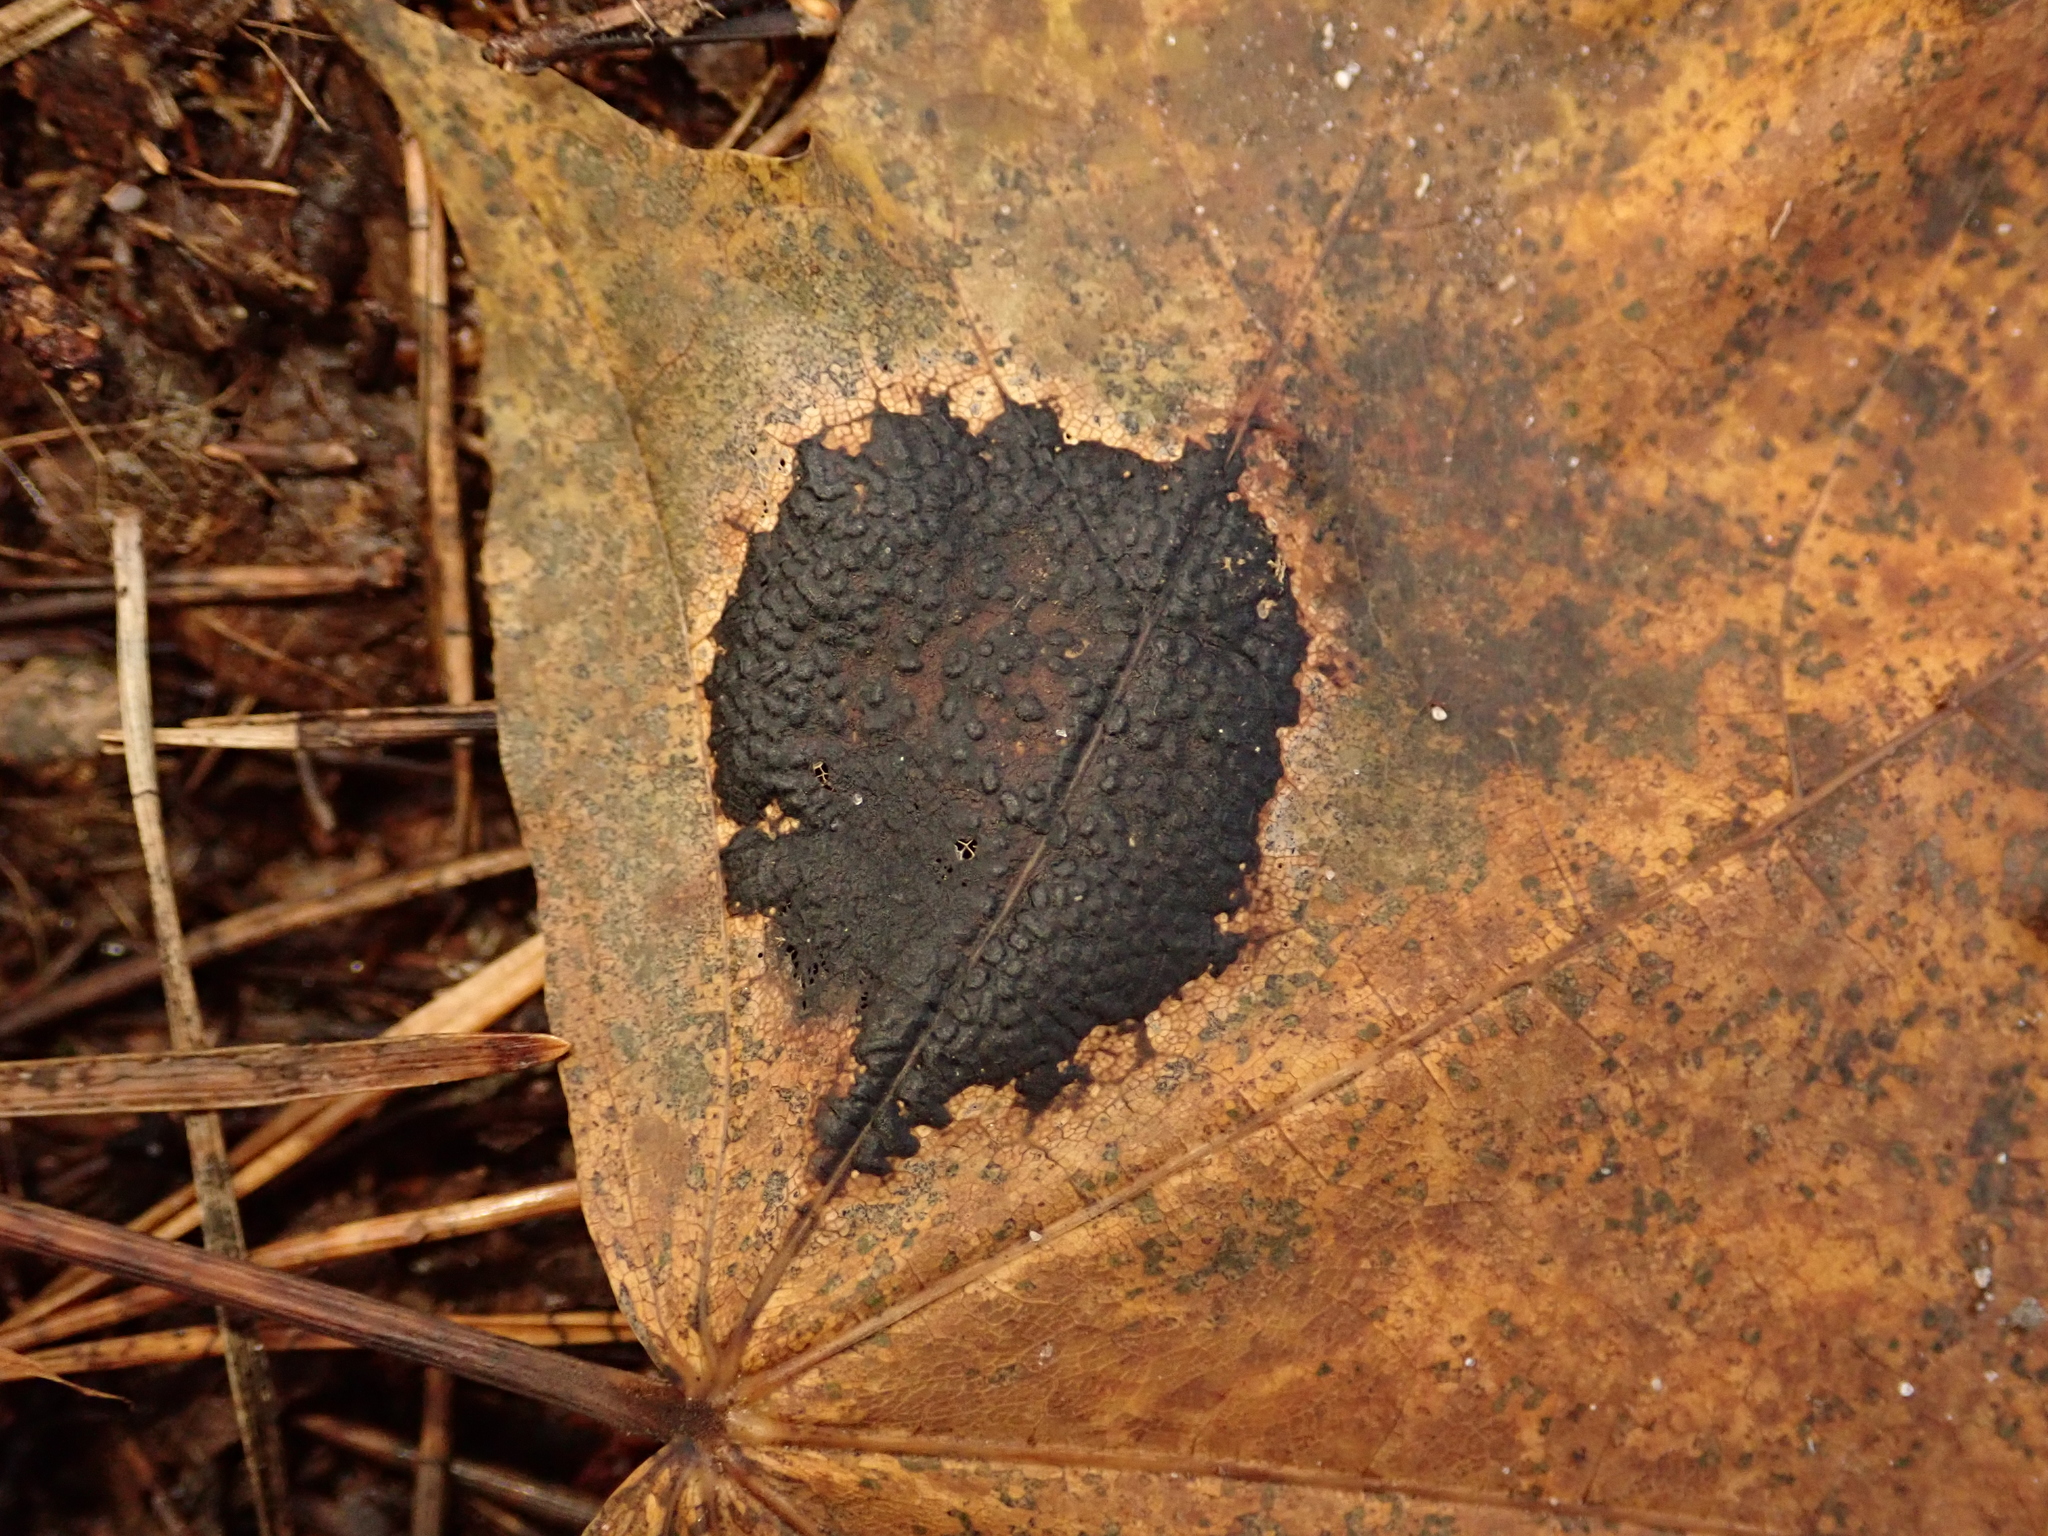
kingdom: Fungi
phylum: Ascomycota
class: Leotiomycetes
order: Rhytismatales
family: Rhytismataceae
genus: Rhytisma
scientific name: Rhytisma acerinum
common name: European tar spot
